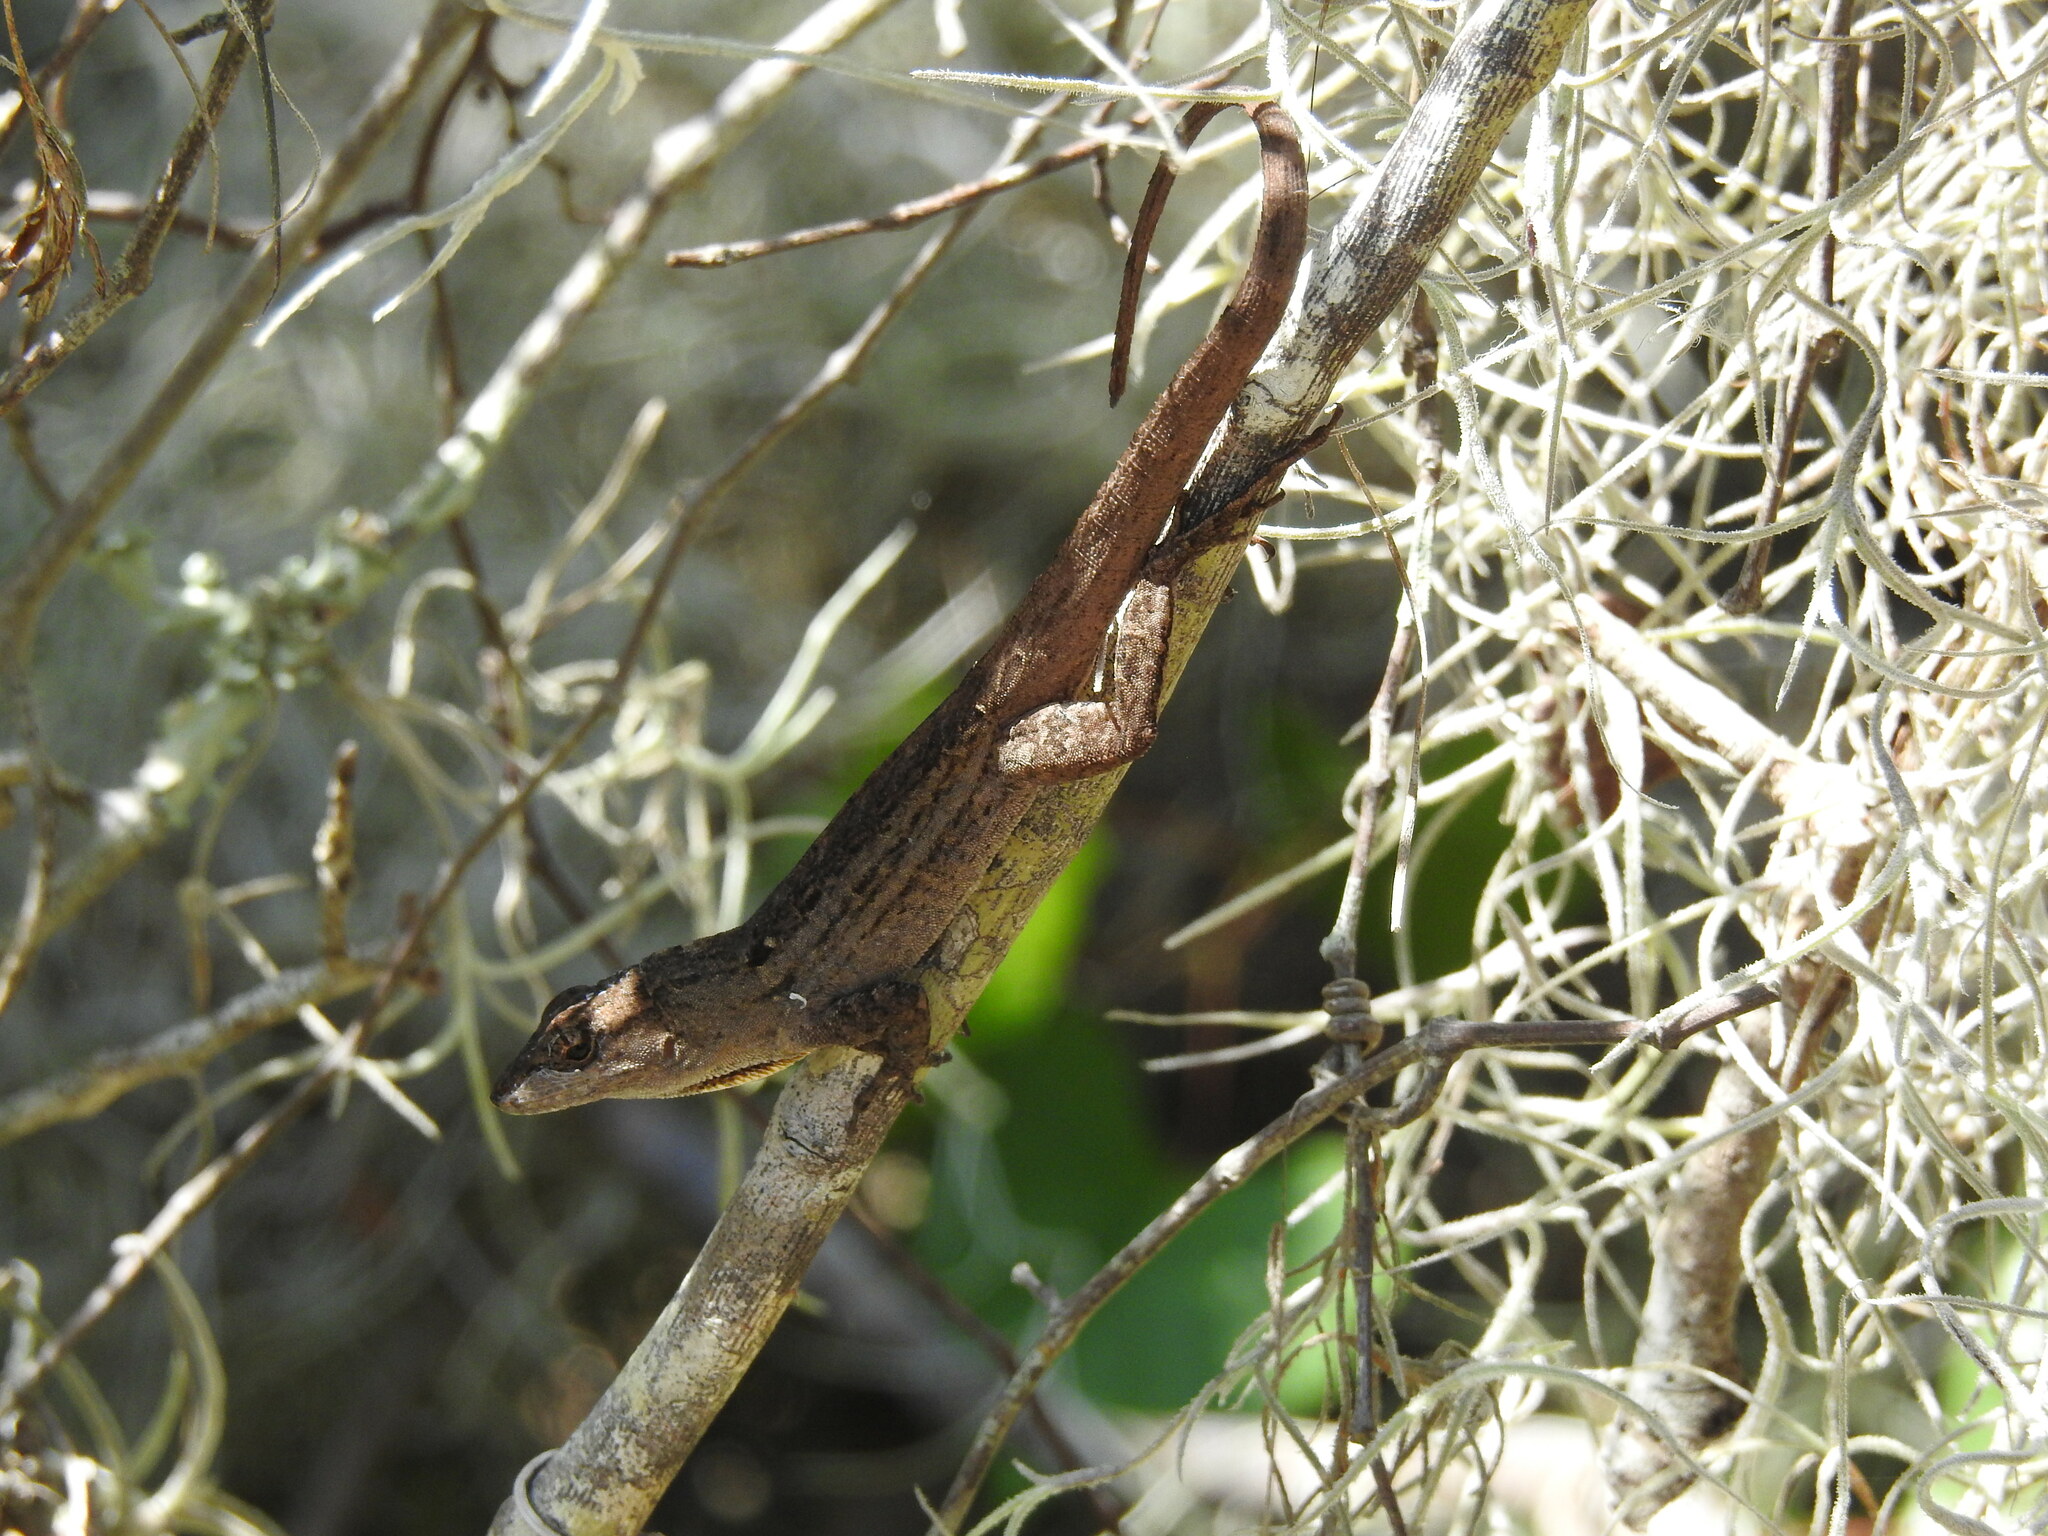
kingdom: Animalia
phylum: Chordata
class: Squamata
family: Dactyloidae
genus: Anolis
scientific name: Anolis sagrei
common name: Brown anole
